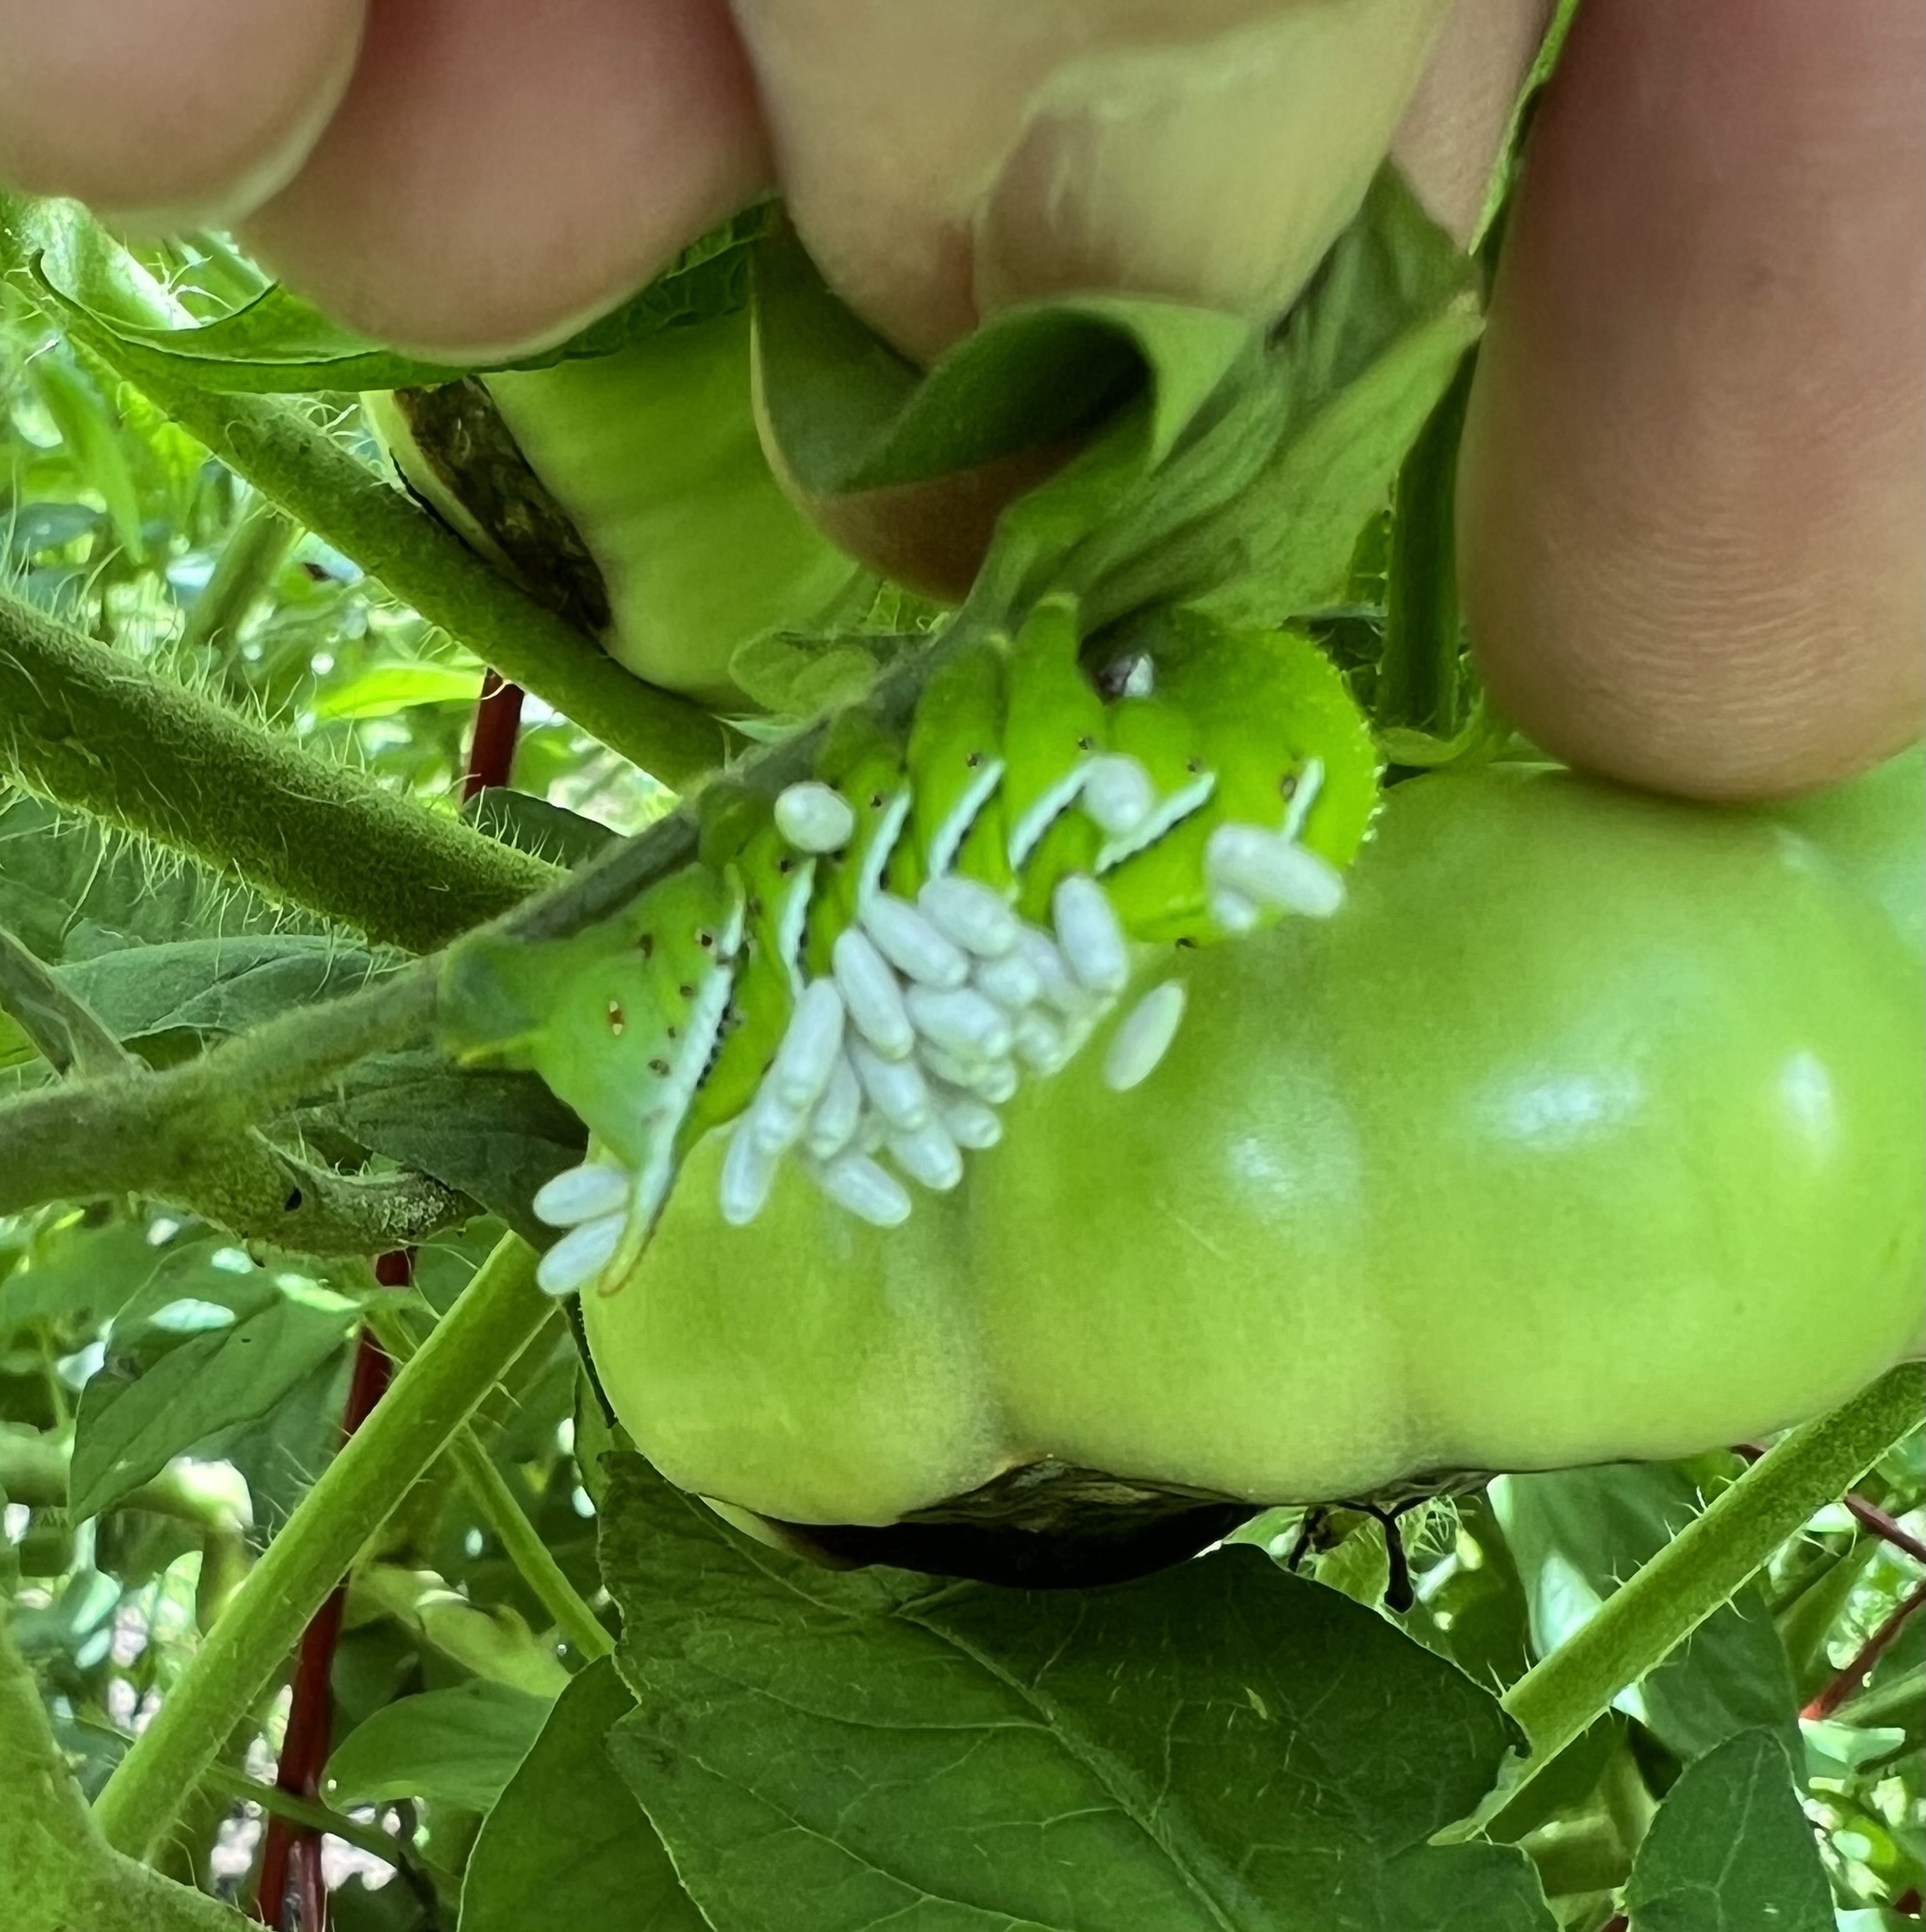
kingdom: Animalia
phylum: Arthropoda
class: Insecta
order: Lepidoptera
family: Sphingidae
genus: Manduca
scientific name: Manduca sexta
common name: Carolina sphinx
